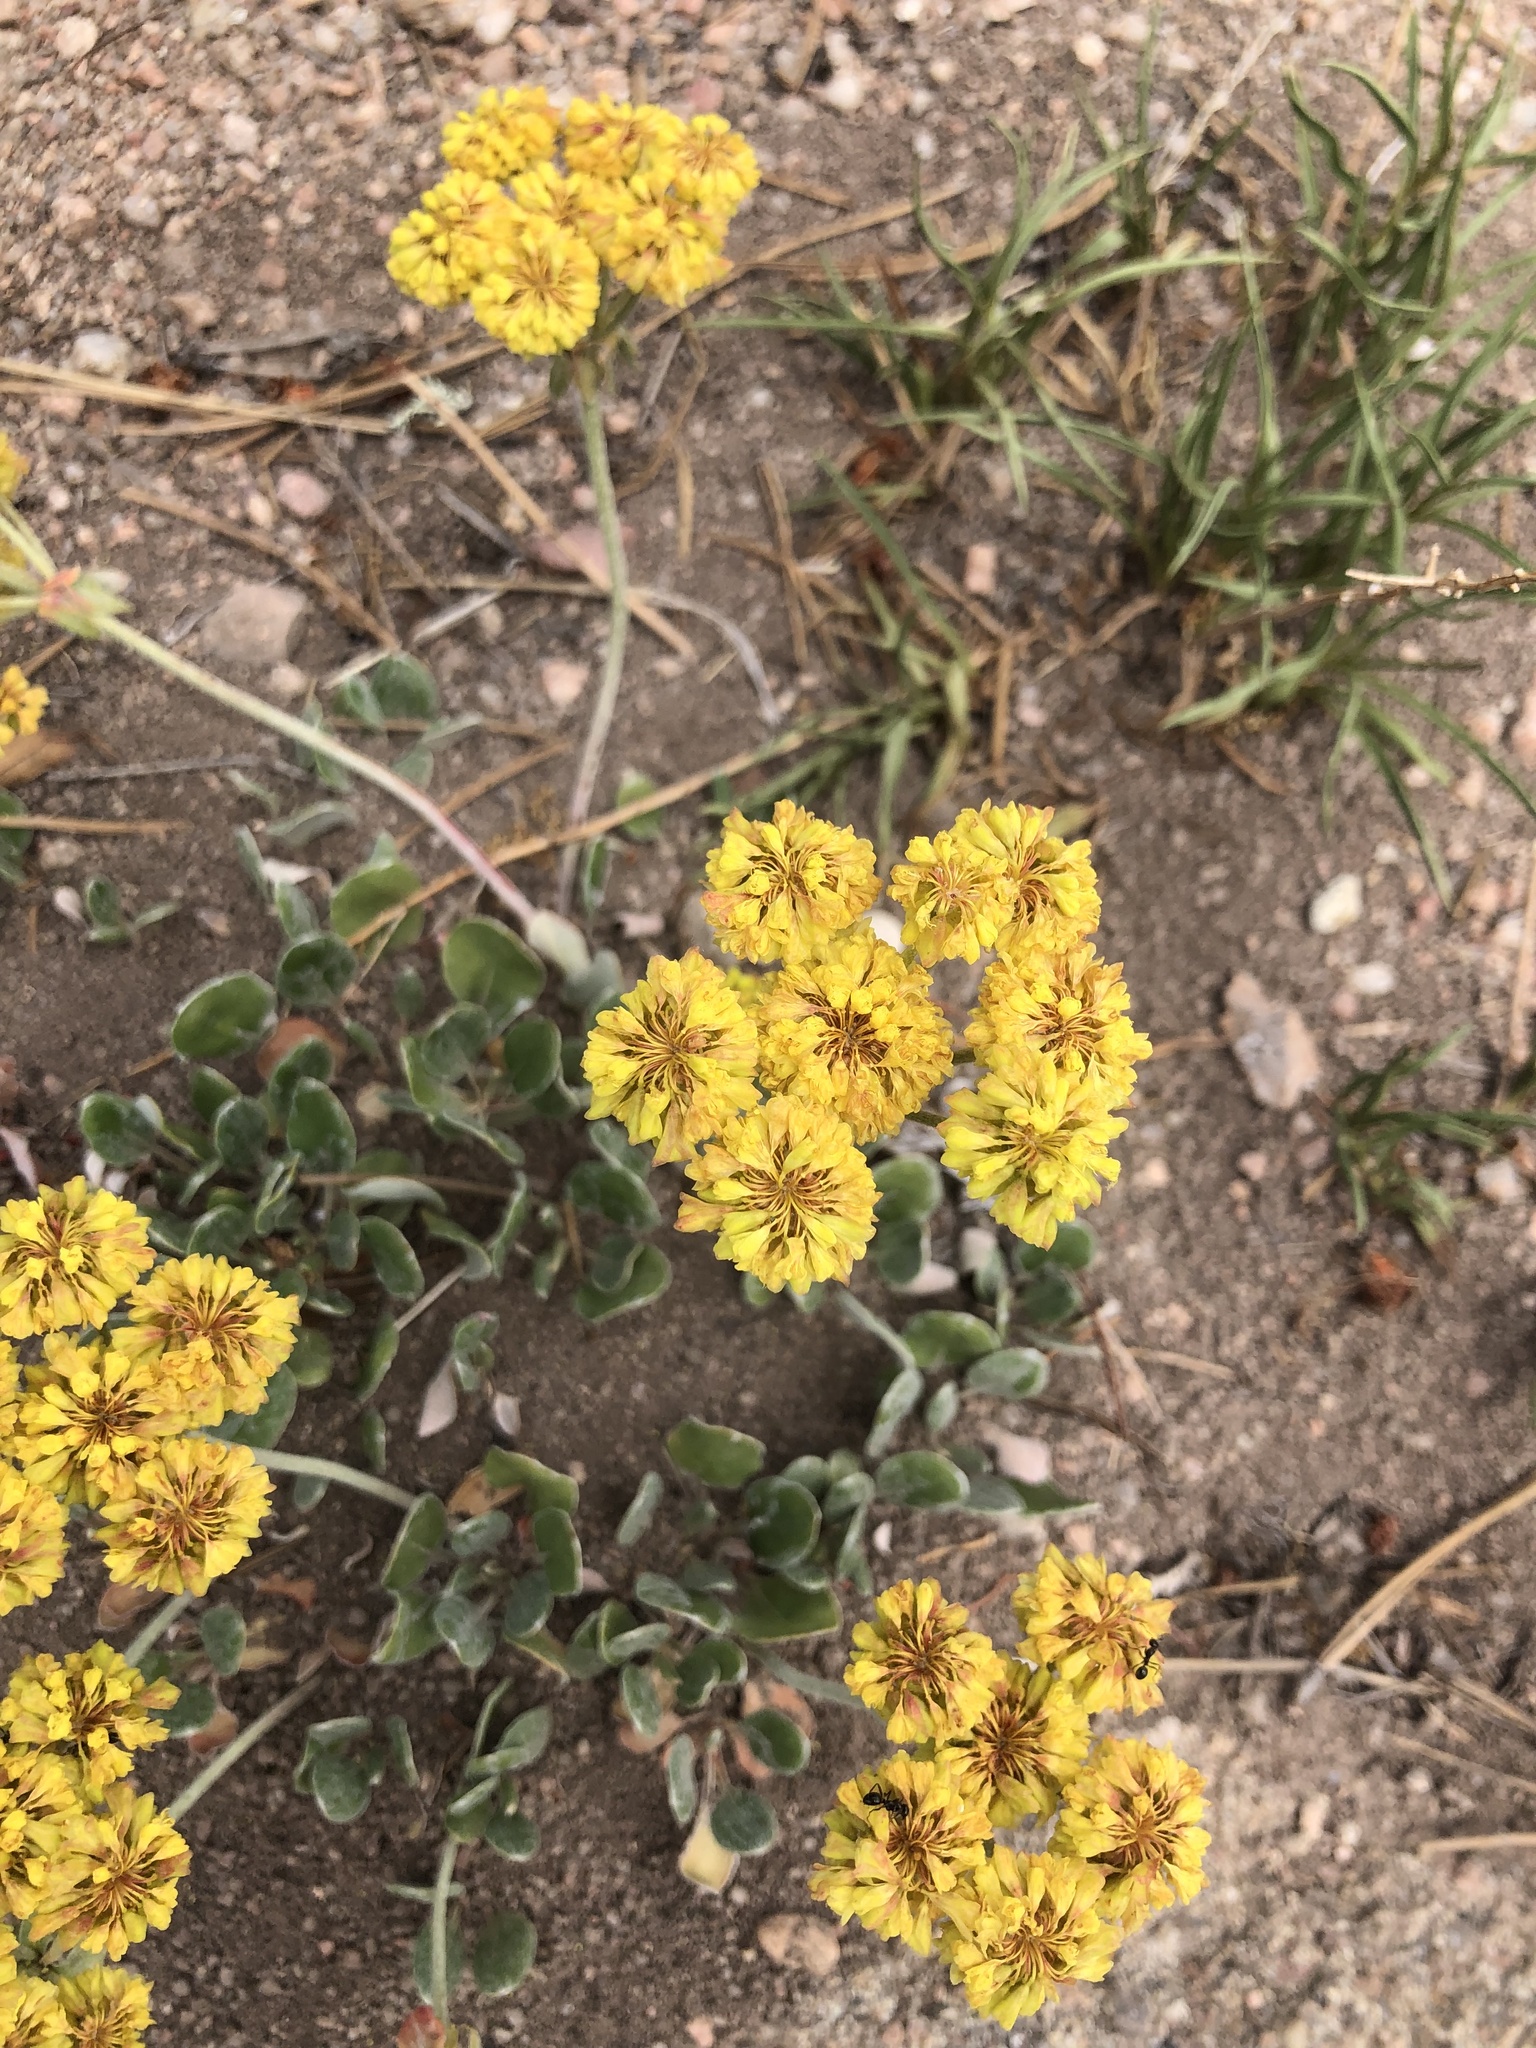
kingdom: Plantae
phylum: Tracheophyta
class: Magnoliopsida
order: Caryophyllales
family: Polygonaceae
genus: Eriogonum
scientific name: Eriogonum umbellatum
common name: Sulfur-buckwheat
